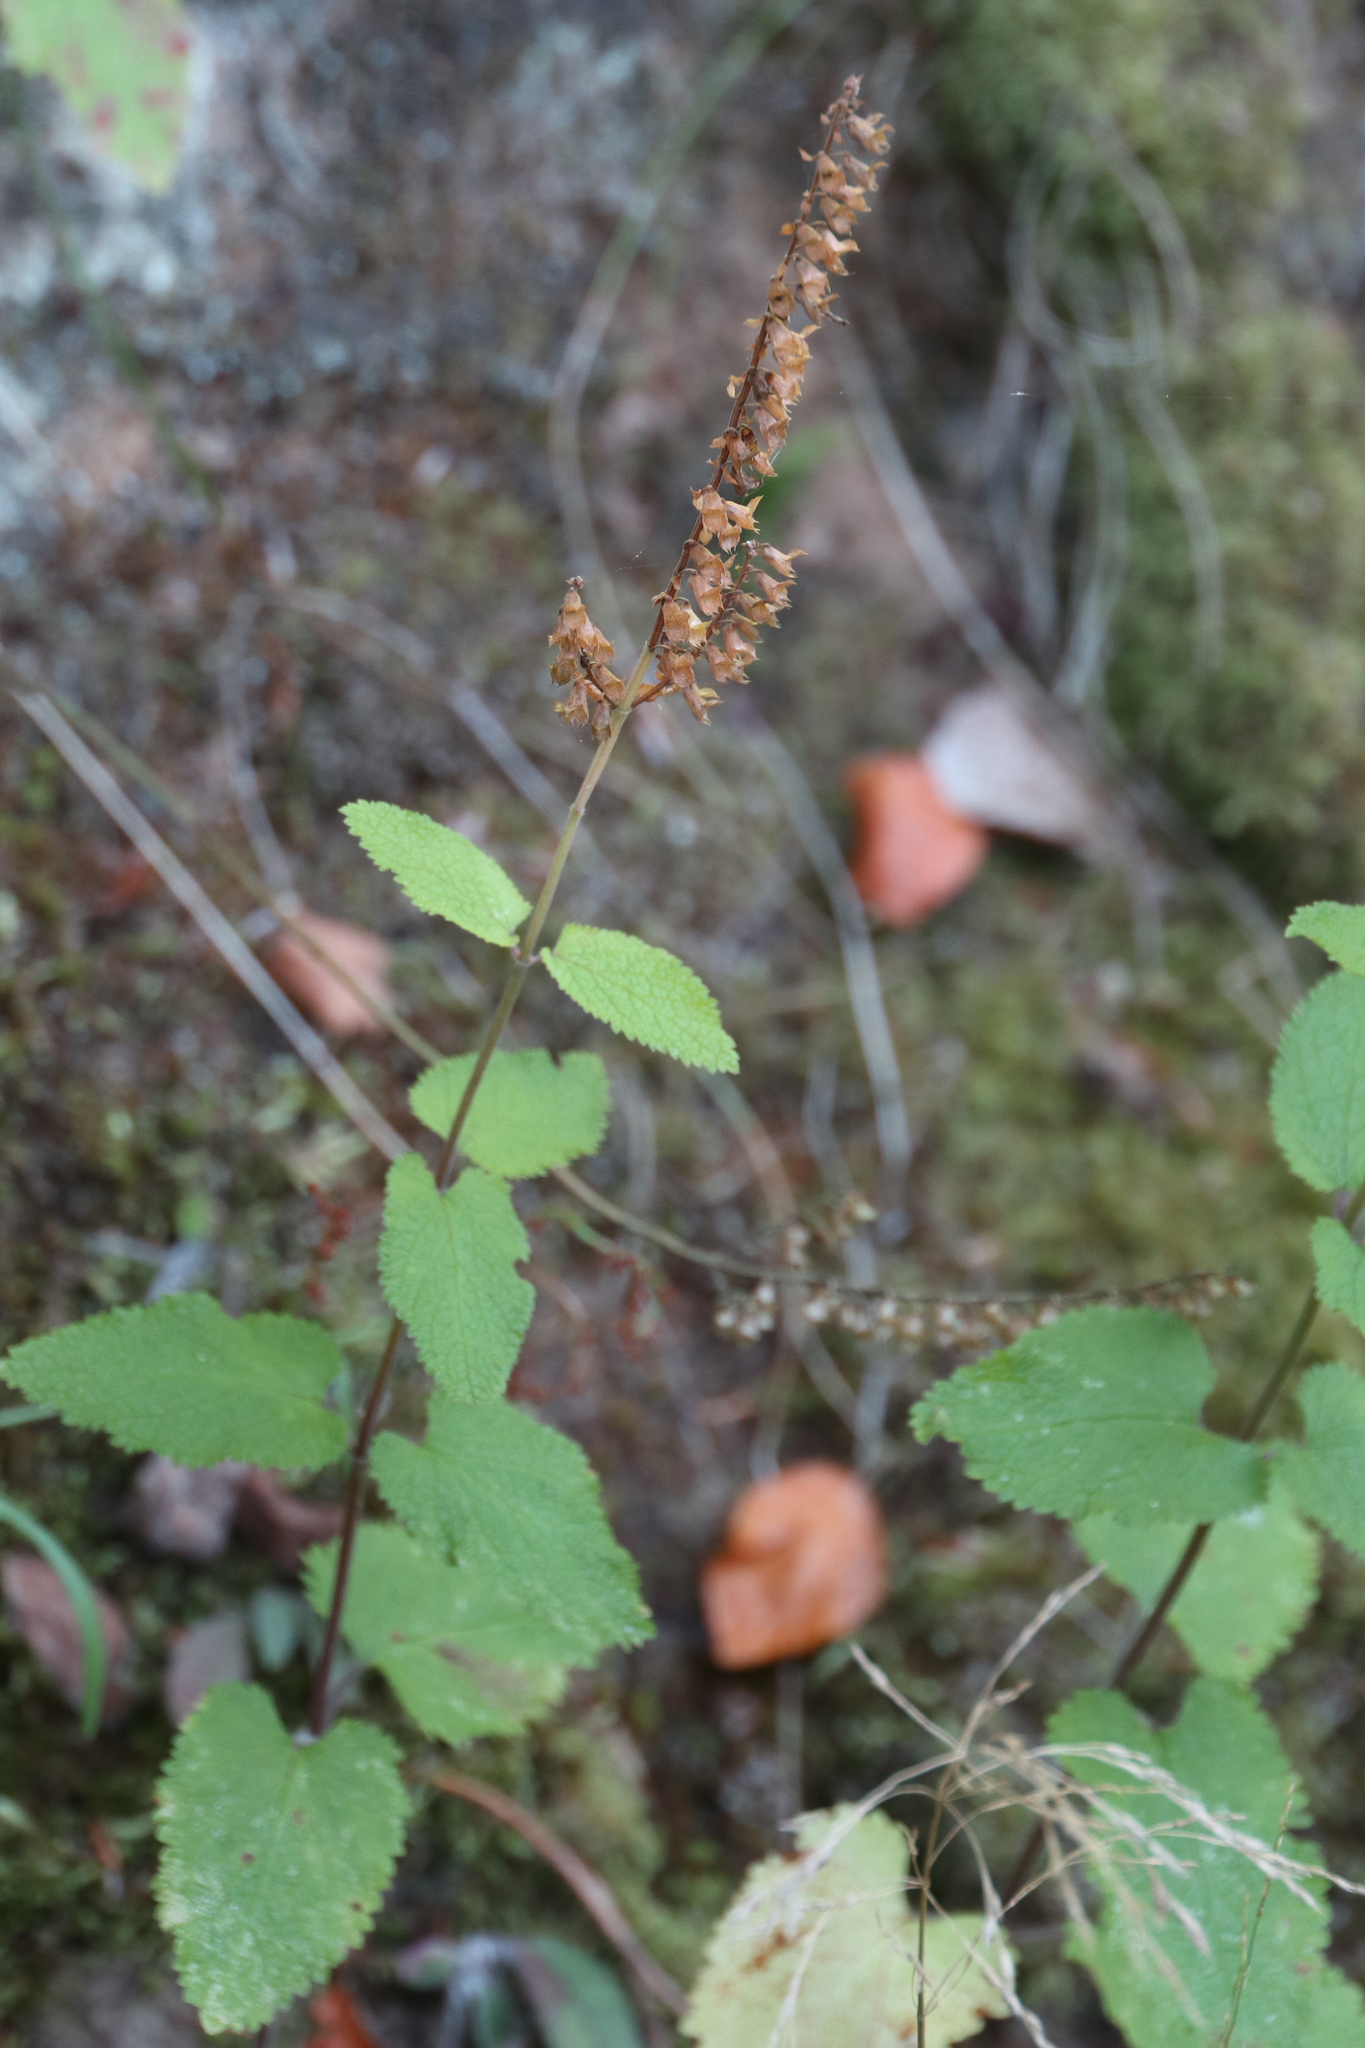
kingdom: Plantae
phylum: Tracheophyta
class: Magnoliopsida
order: Lamiales
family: Lamiaceae
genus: Teucrium
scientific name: Teucrium scorodonia
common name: Woodland germander
